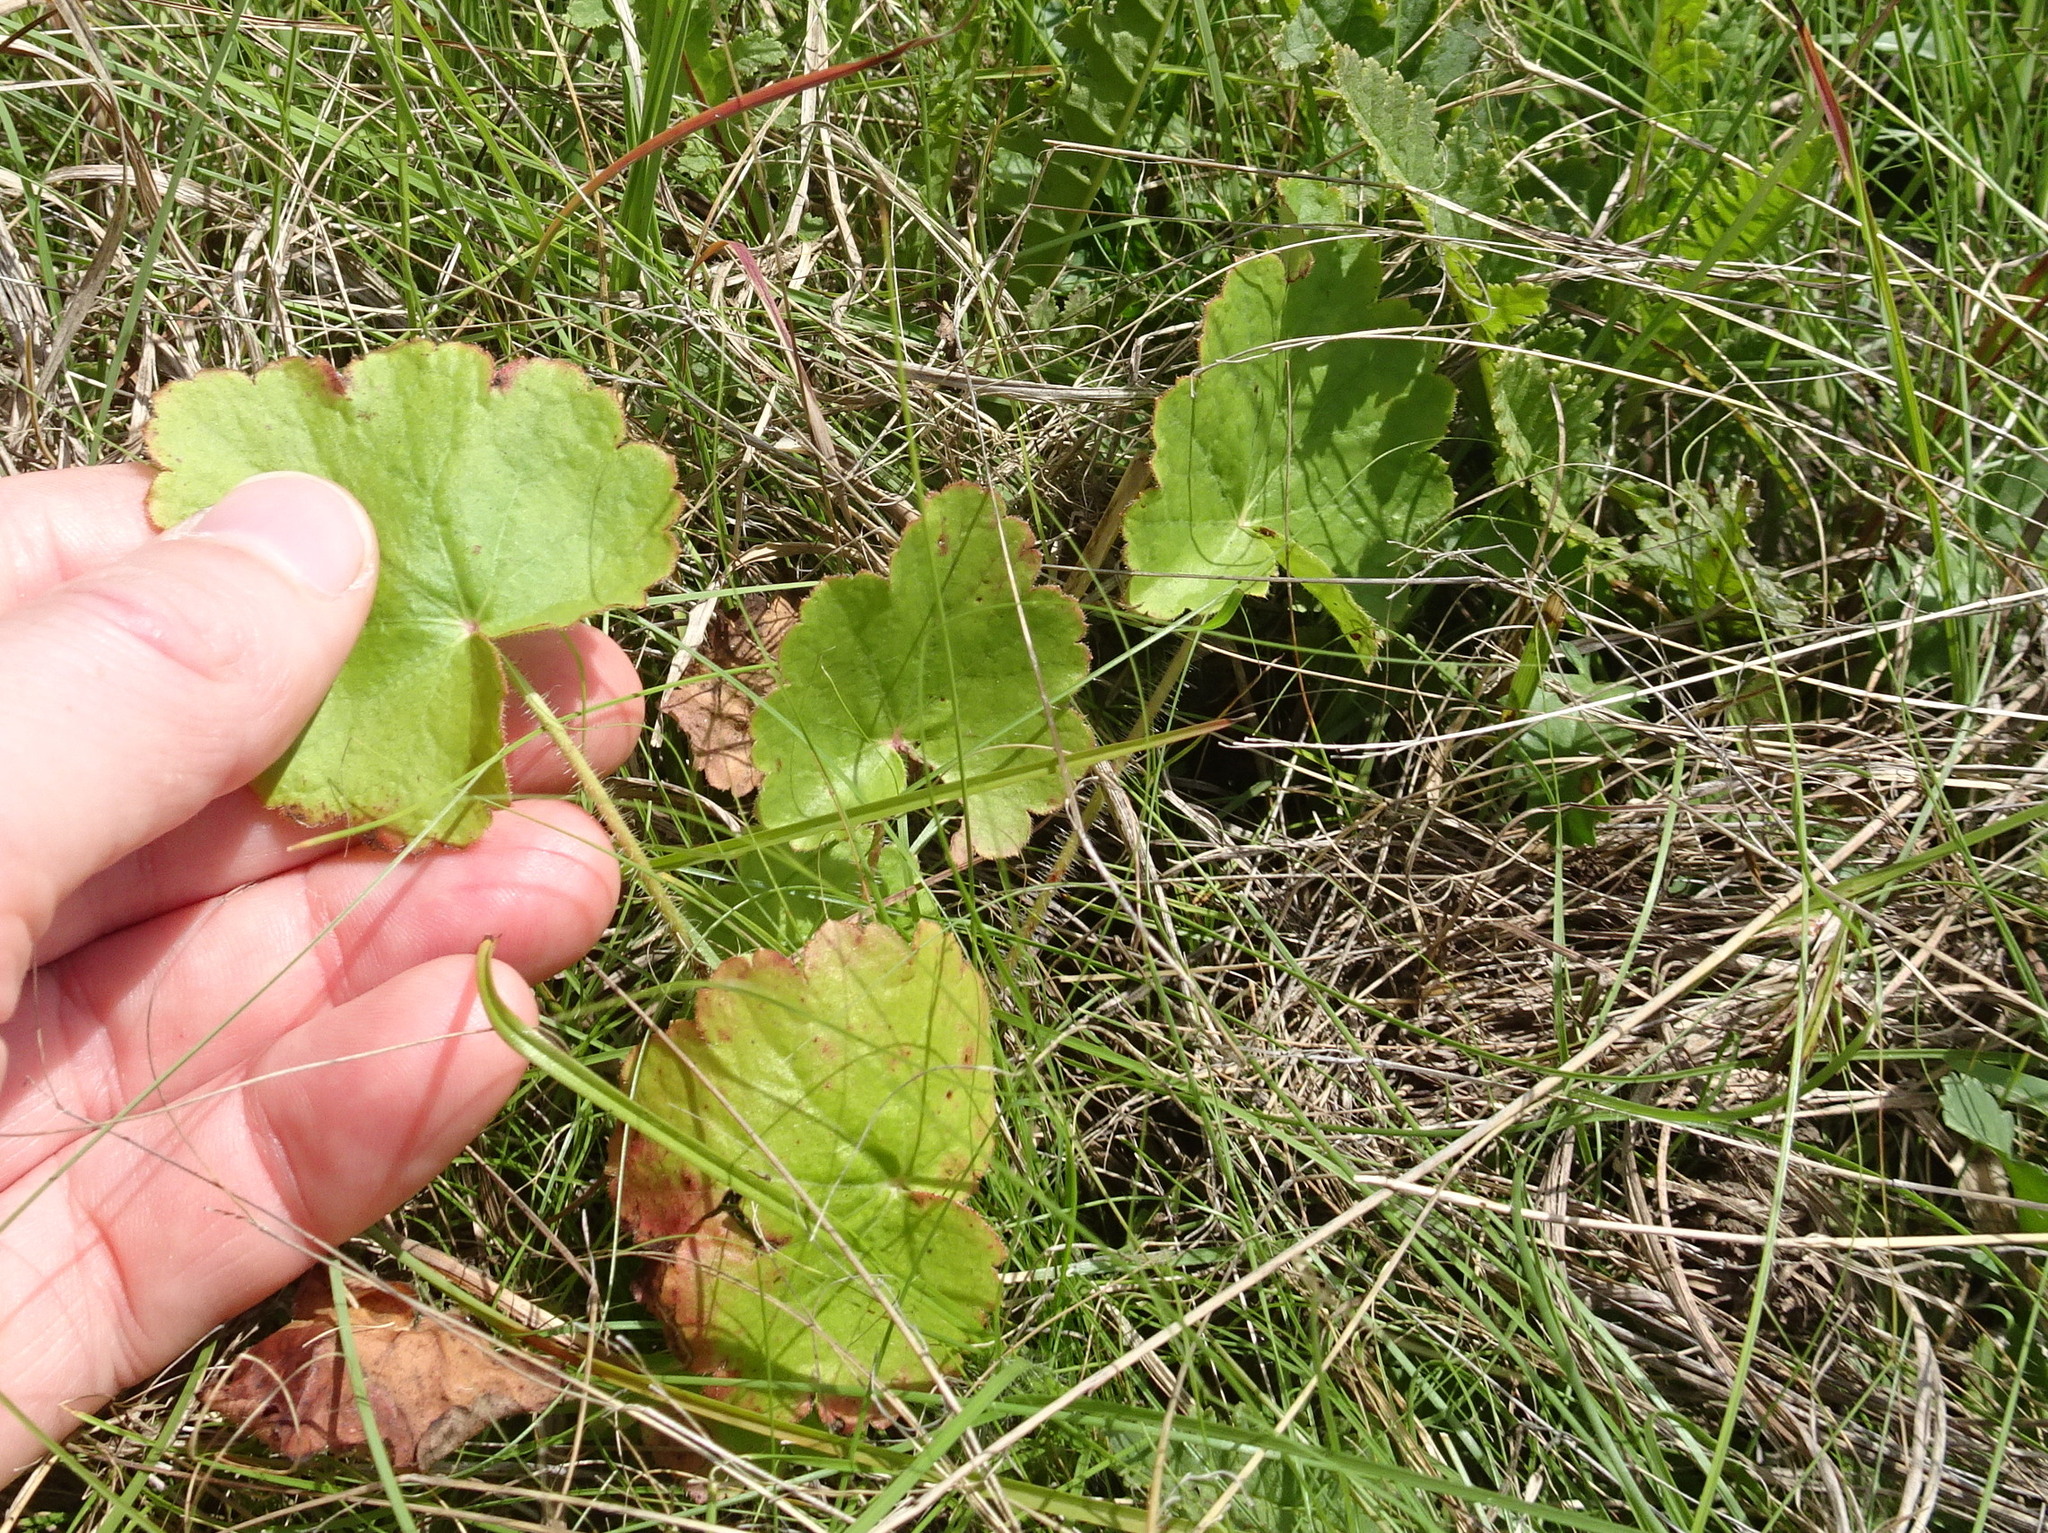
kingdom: Plantae
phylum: Tracheophyta
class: Magnoliopsida
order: Saxifragales
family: Saxifragaceae
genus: Heuchera
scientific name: Heuchera richardsonii
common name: Richardson's alumroot
